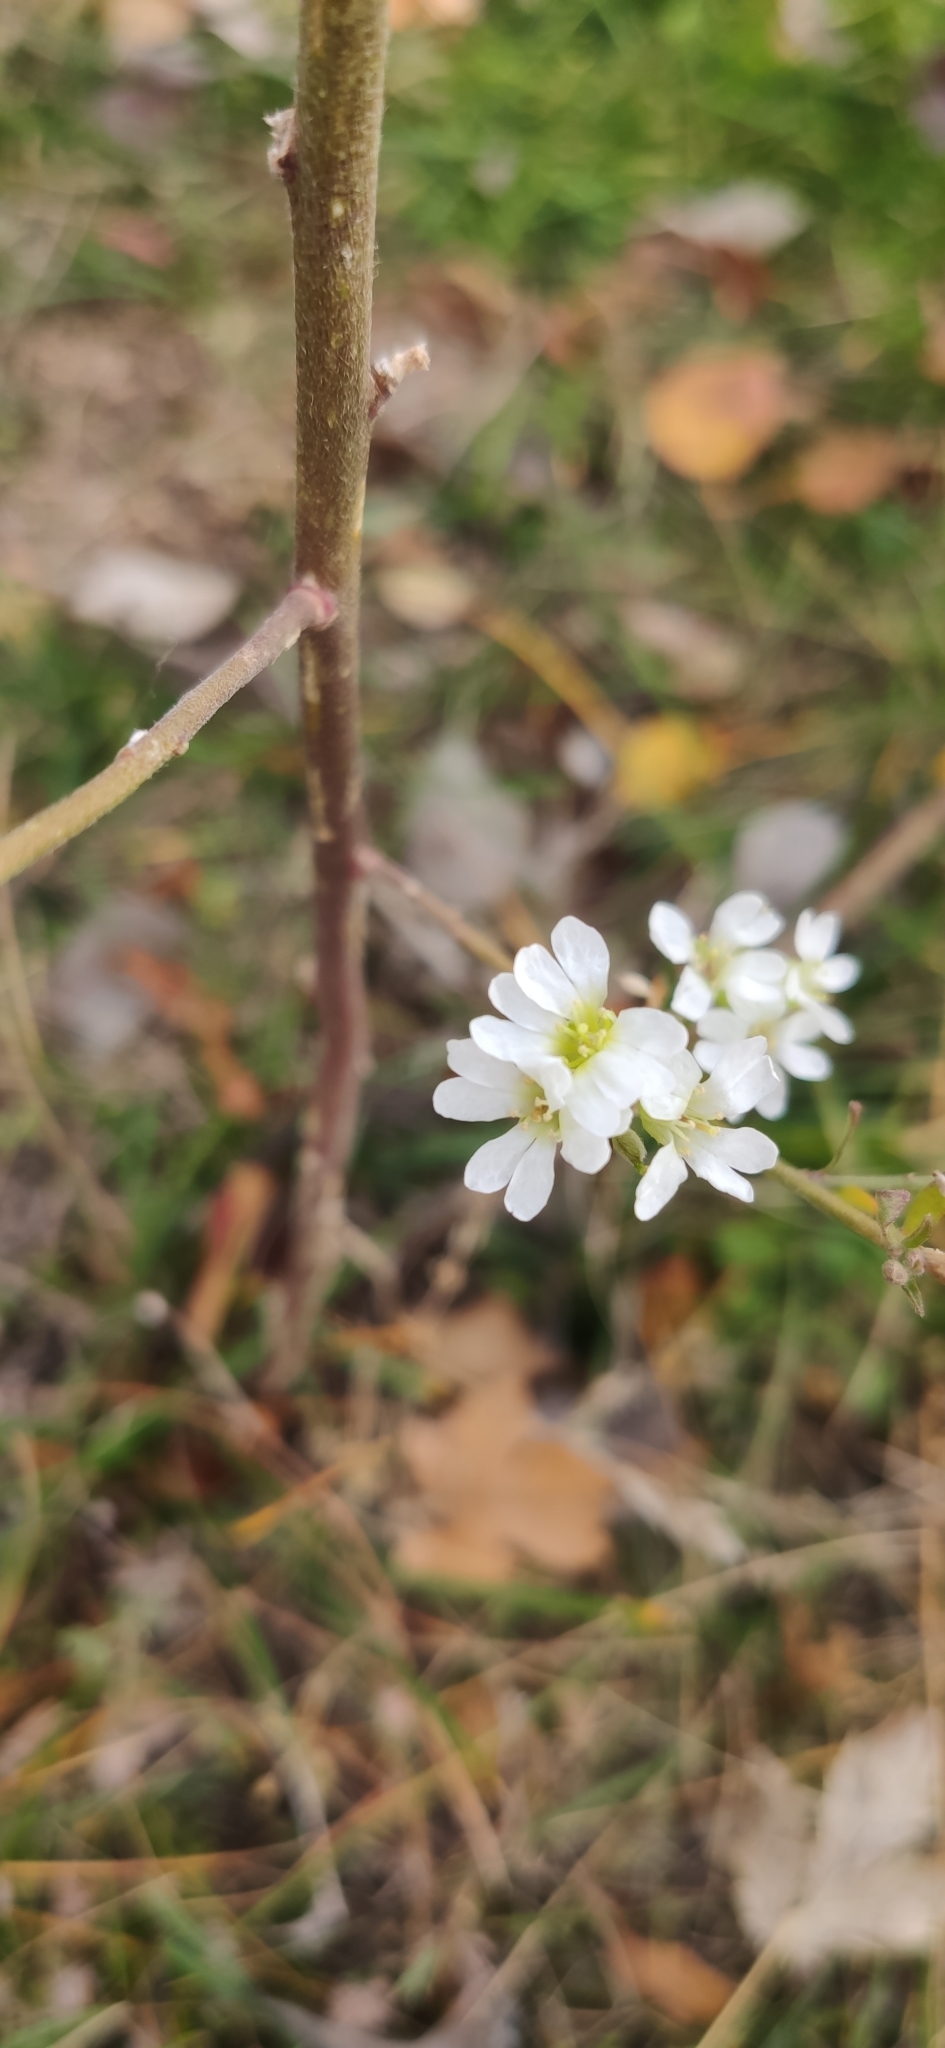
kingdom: Plantae
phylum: Tracheophyta
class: Magnoliopsida
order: Brassicales
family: Brassicaceae
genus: Berteroa
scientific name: Berteroa incana
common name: Hoary alison
